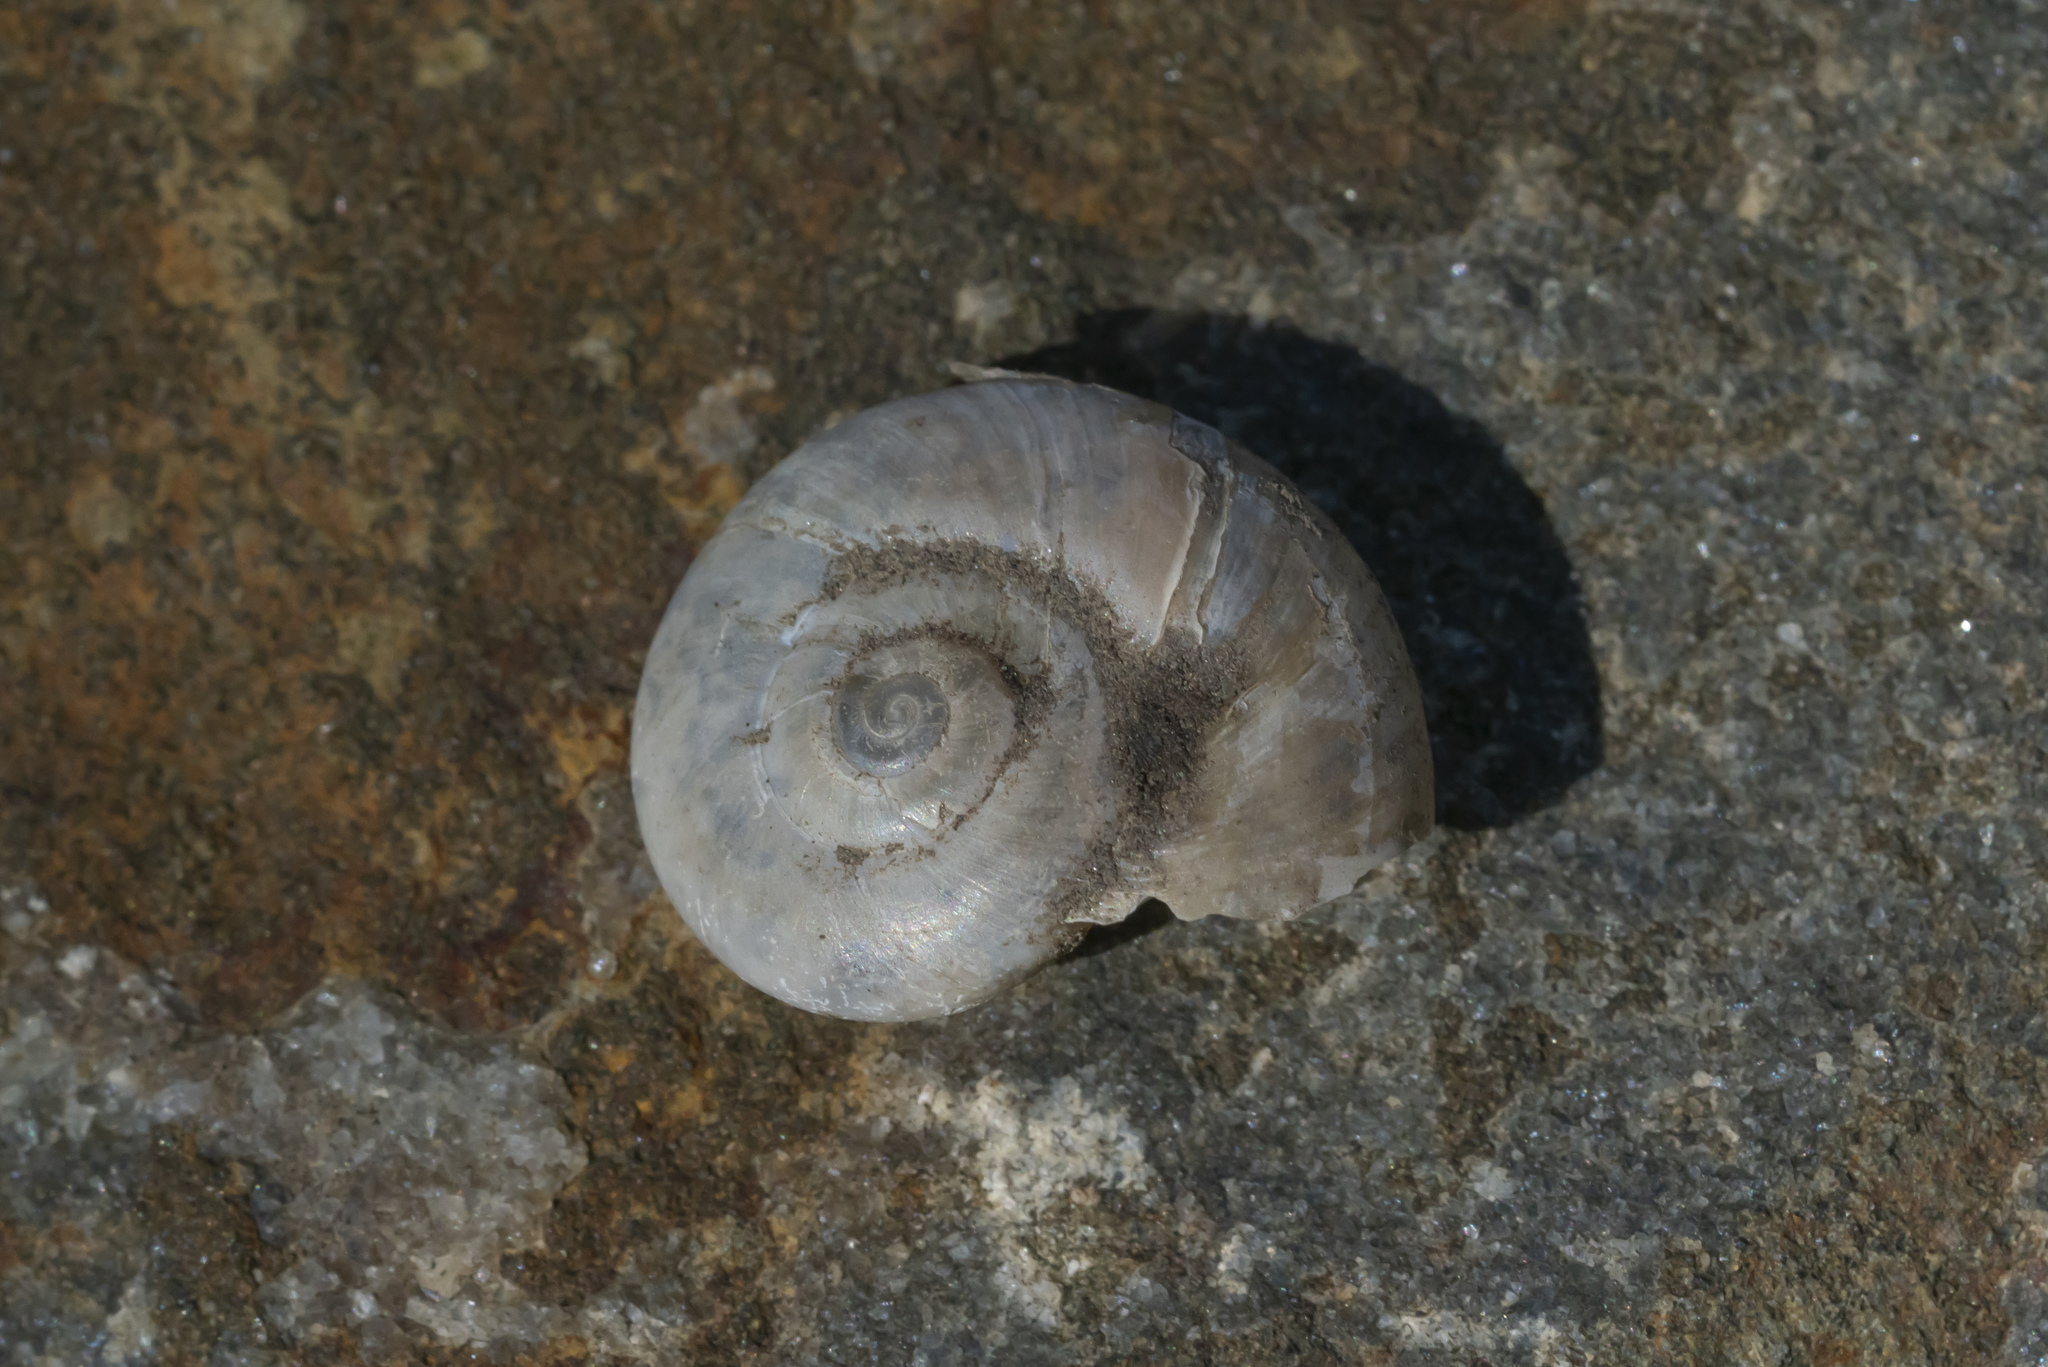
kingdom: Animalia
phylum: Mollusca
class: Gastropoda
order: Stylommatophora
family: Oxychilidae
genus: Eopolita
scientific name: Eopolita protensa
